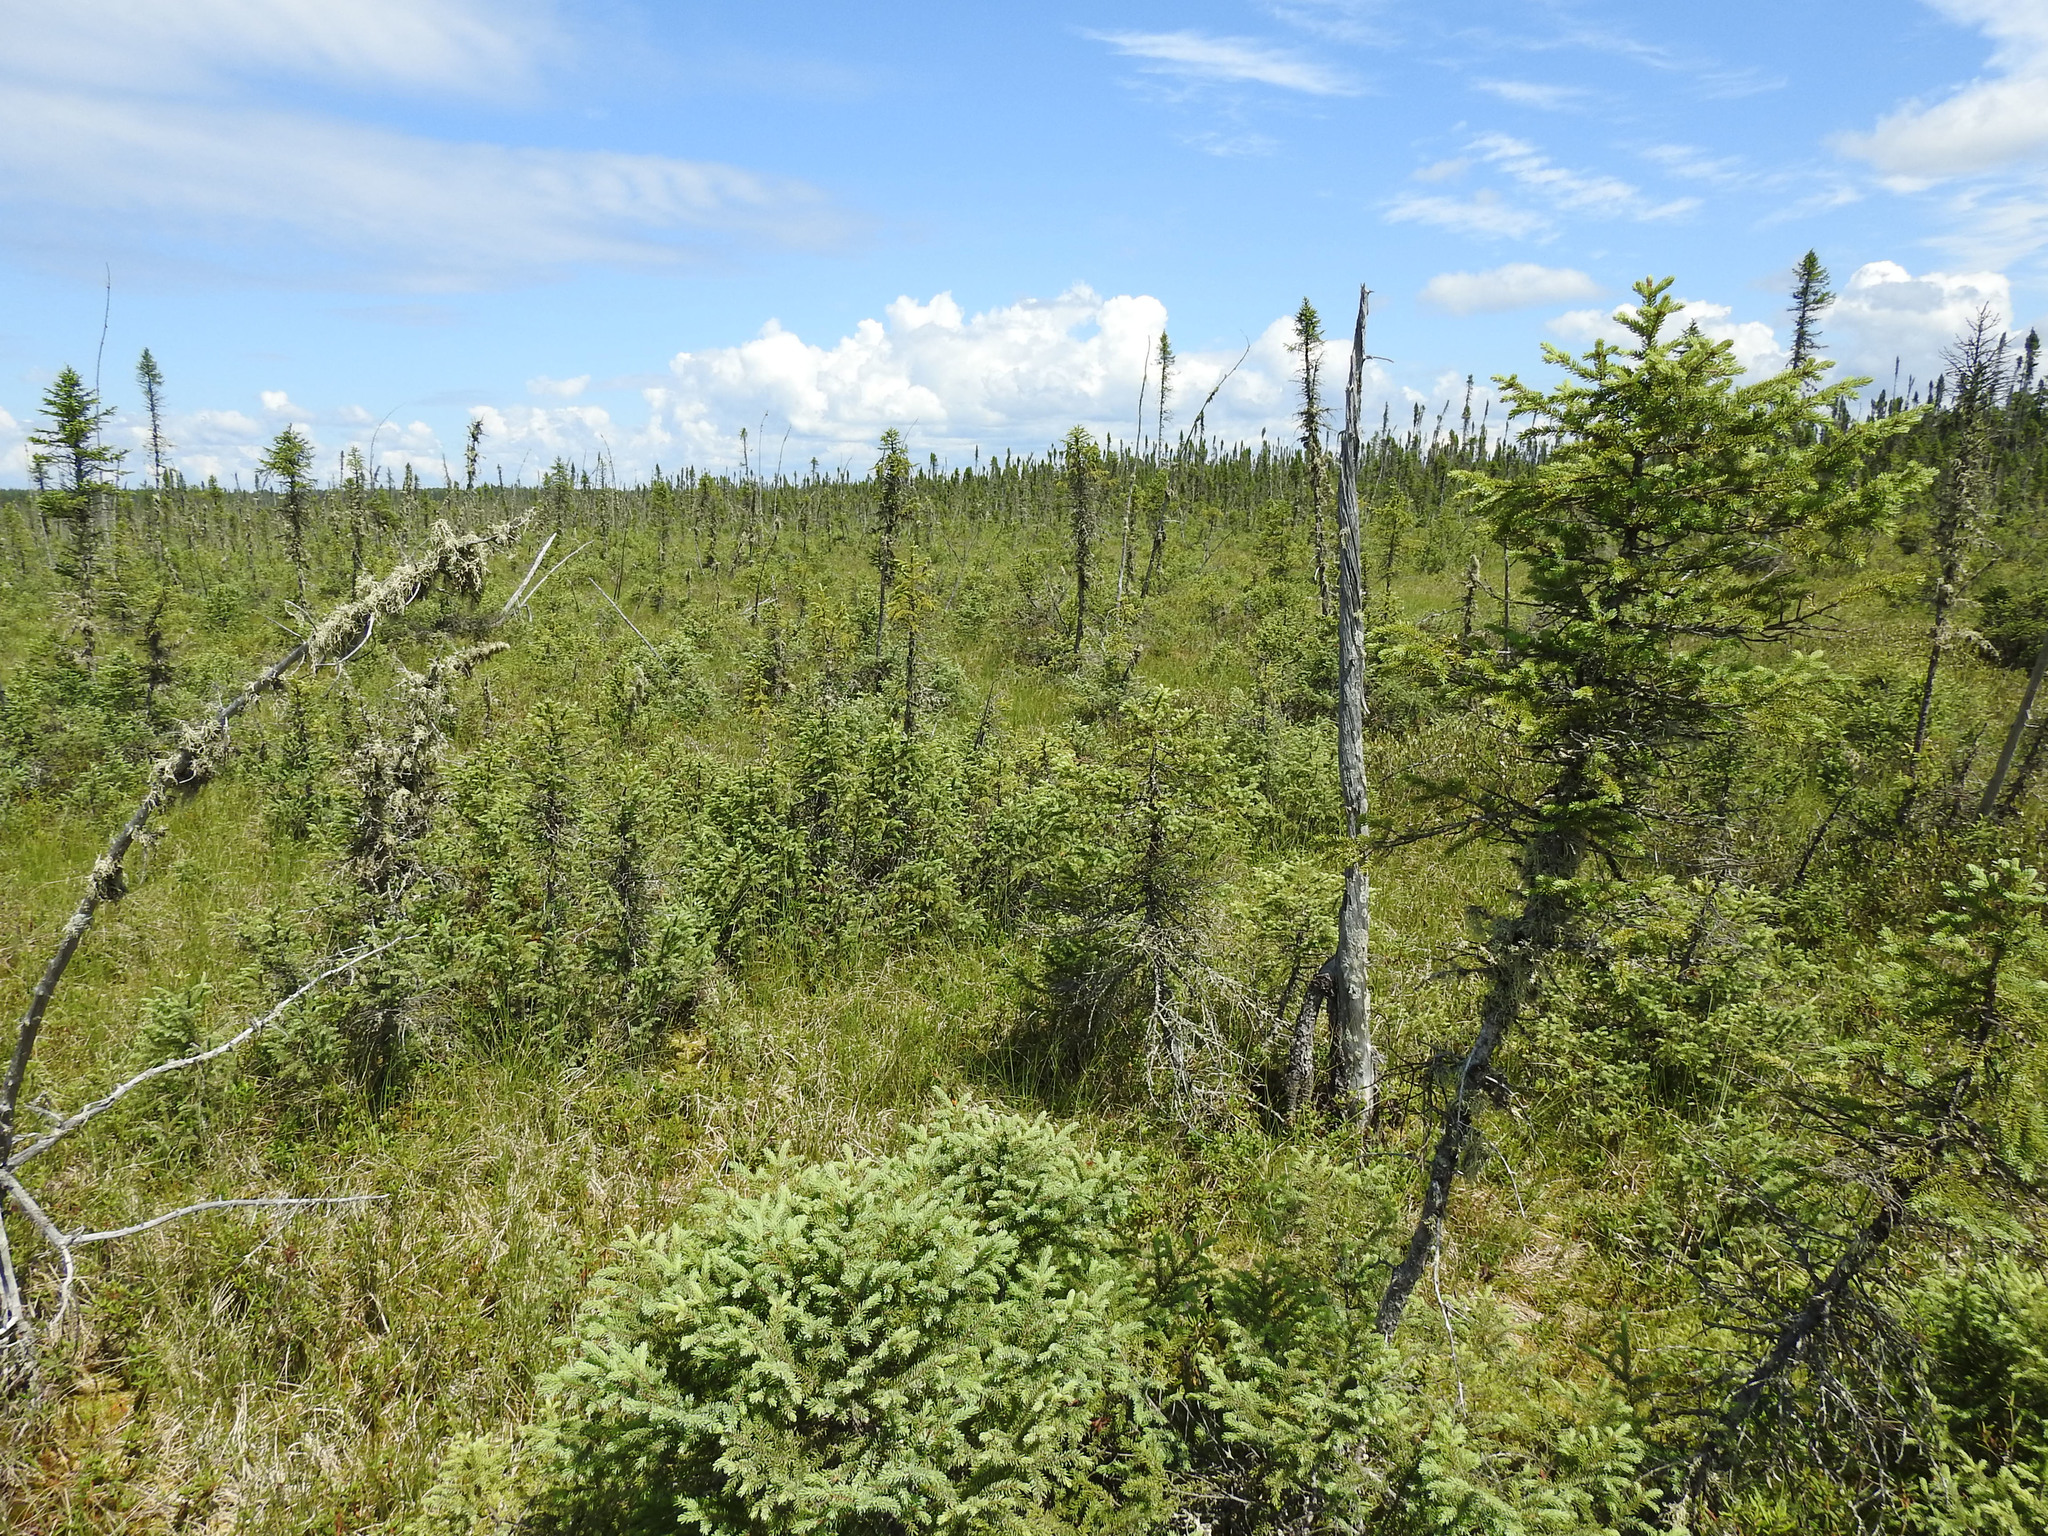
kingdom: Plantae
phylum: Tracheophyta
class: Pinopsida
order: Pinales
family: Pinaceae
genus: Picea
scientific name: Picea mariana
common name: Black spruce
